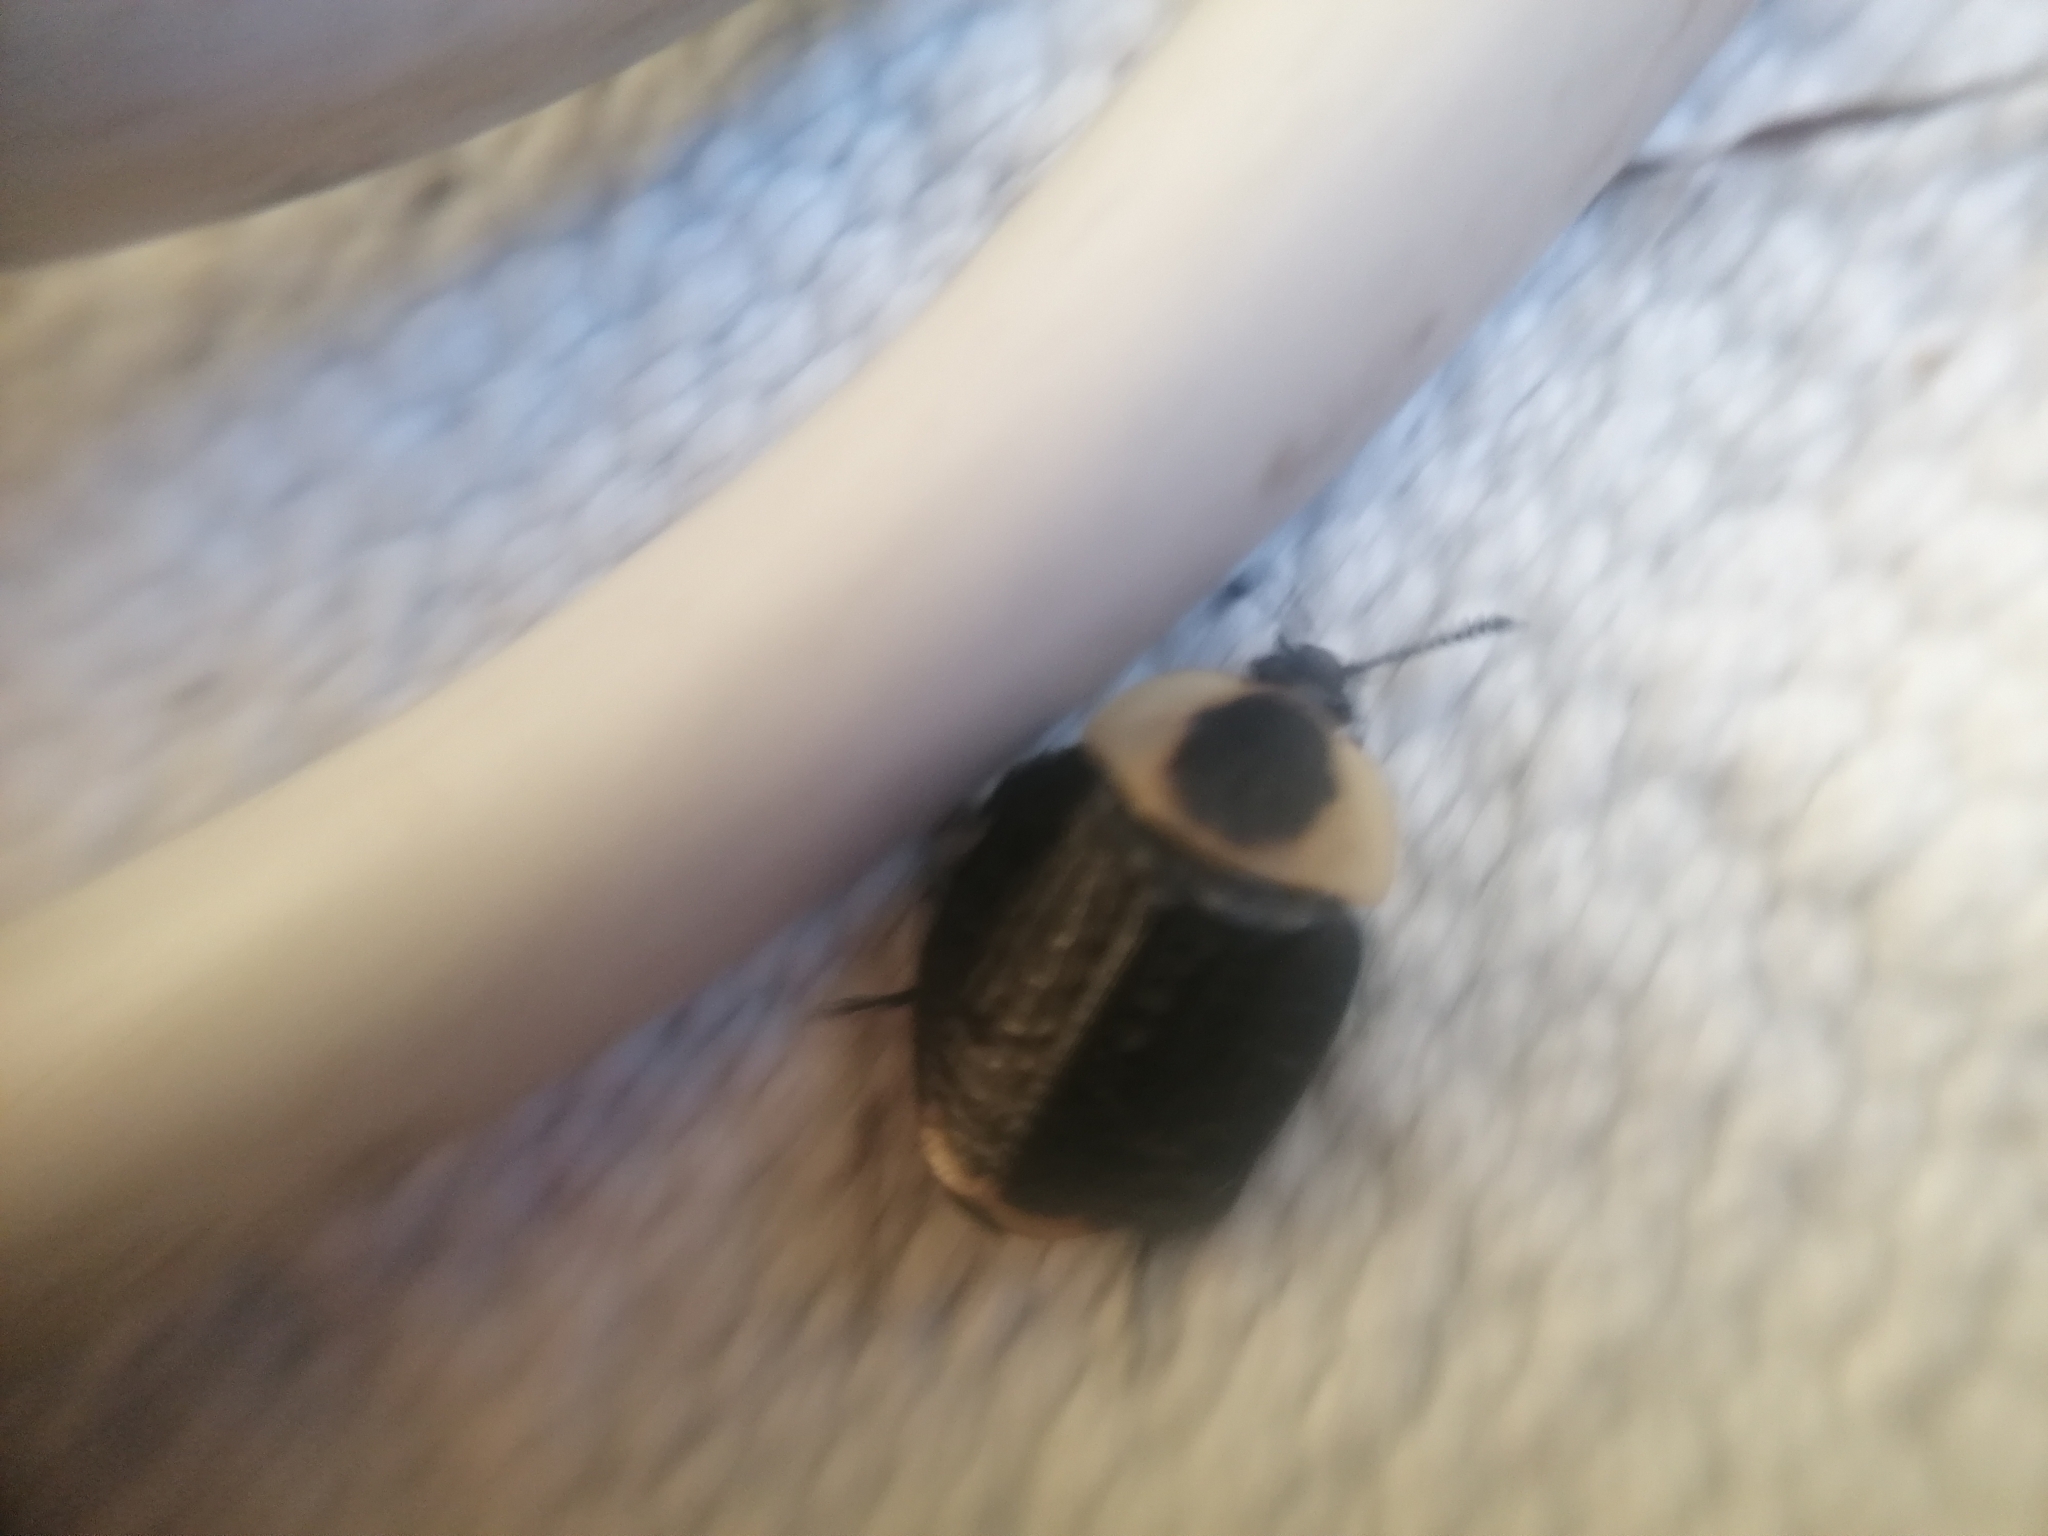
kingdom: Animalia
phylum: Arthropoda
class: Insecta
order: Coleoptera
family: Staphylinidae
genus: Necrophila
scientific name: Necrophila americana
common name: American carrion beetle
